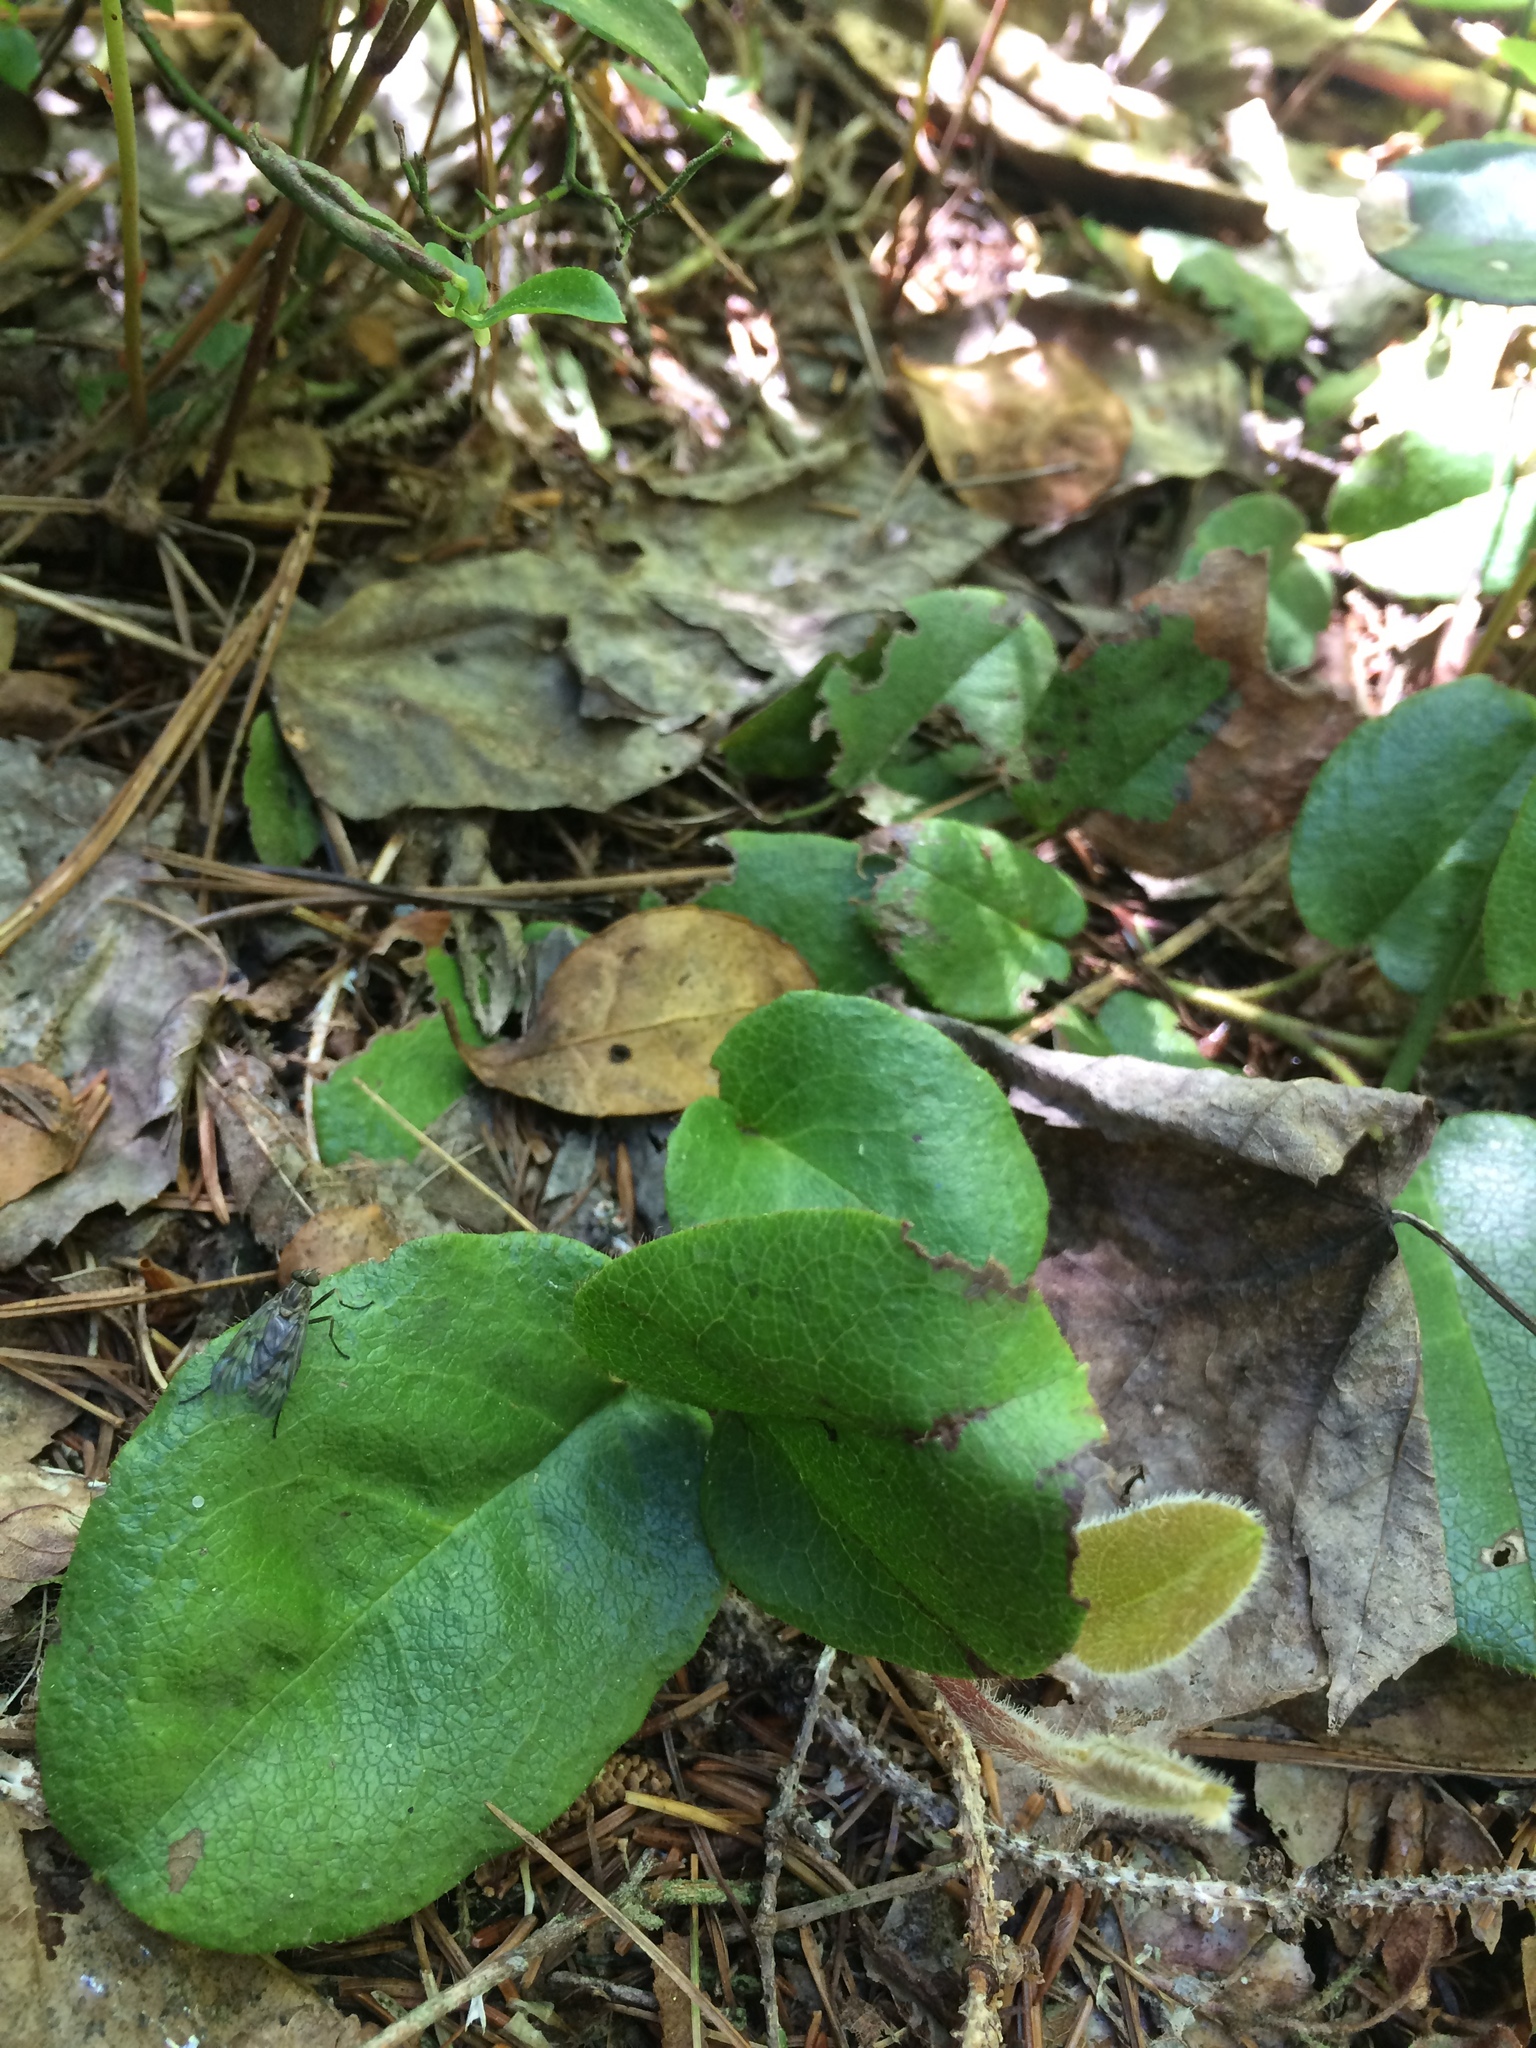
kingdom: Plantae
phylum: Tracheophyta
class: Magnoliopsida
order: Ericales
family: Ericaceae
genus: Epigaea
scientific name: Epigaea repens
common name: Gravelroot
